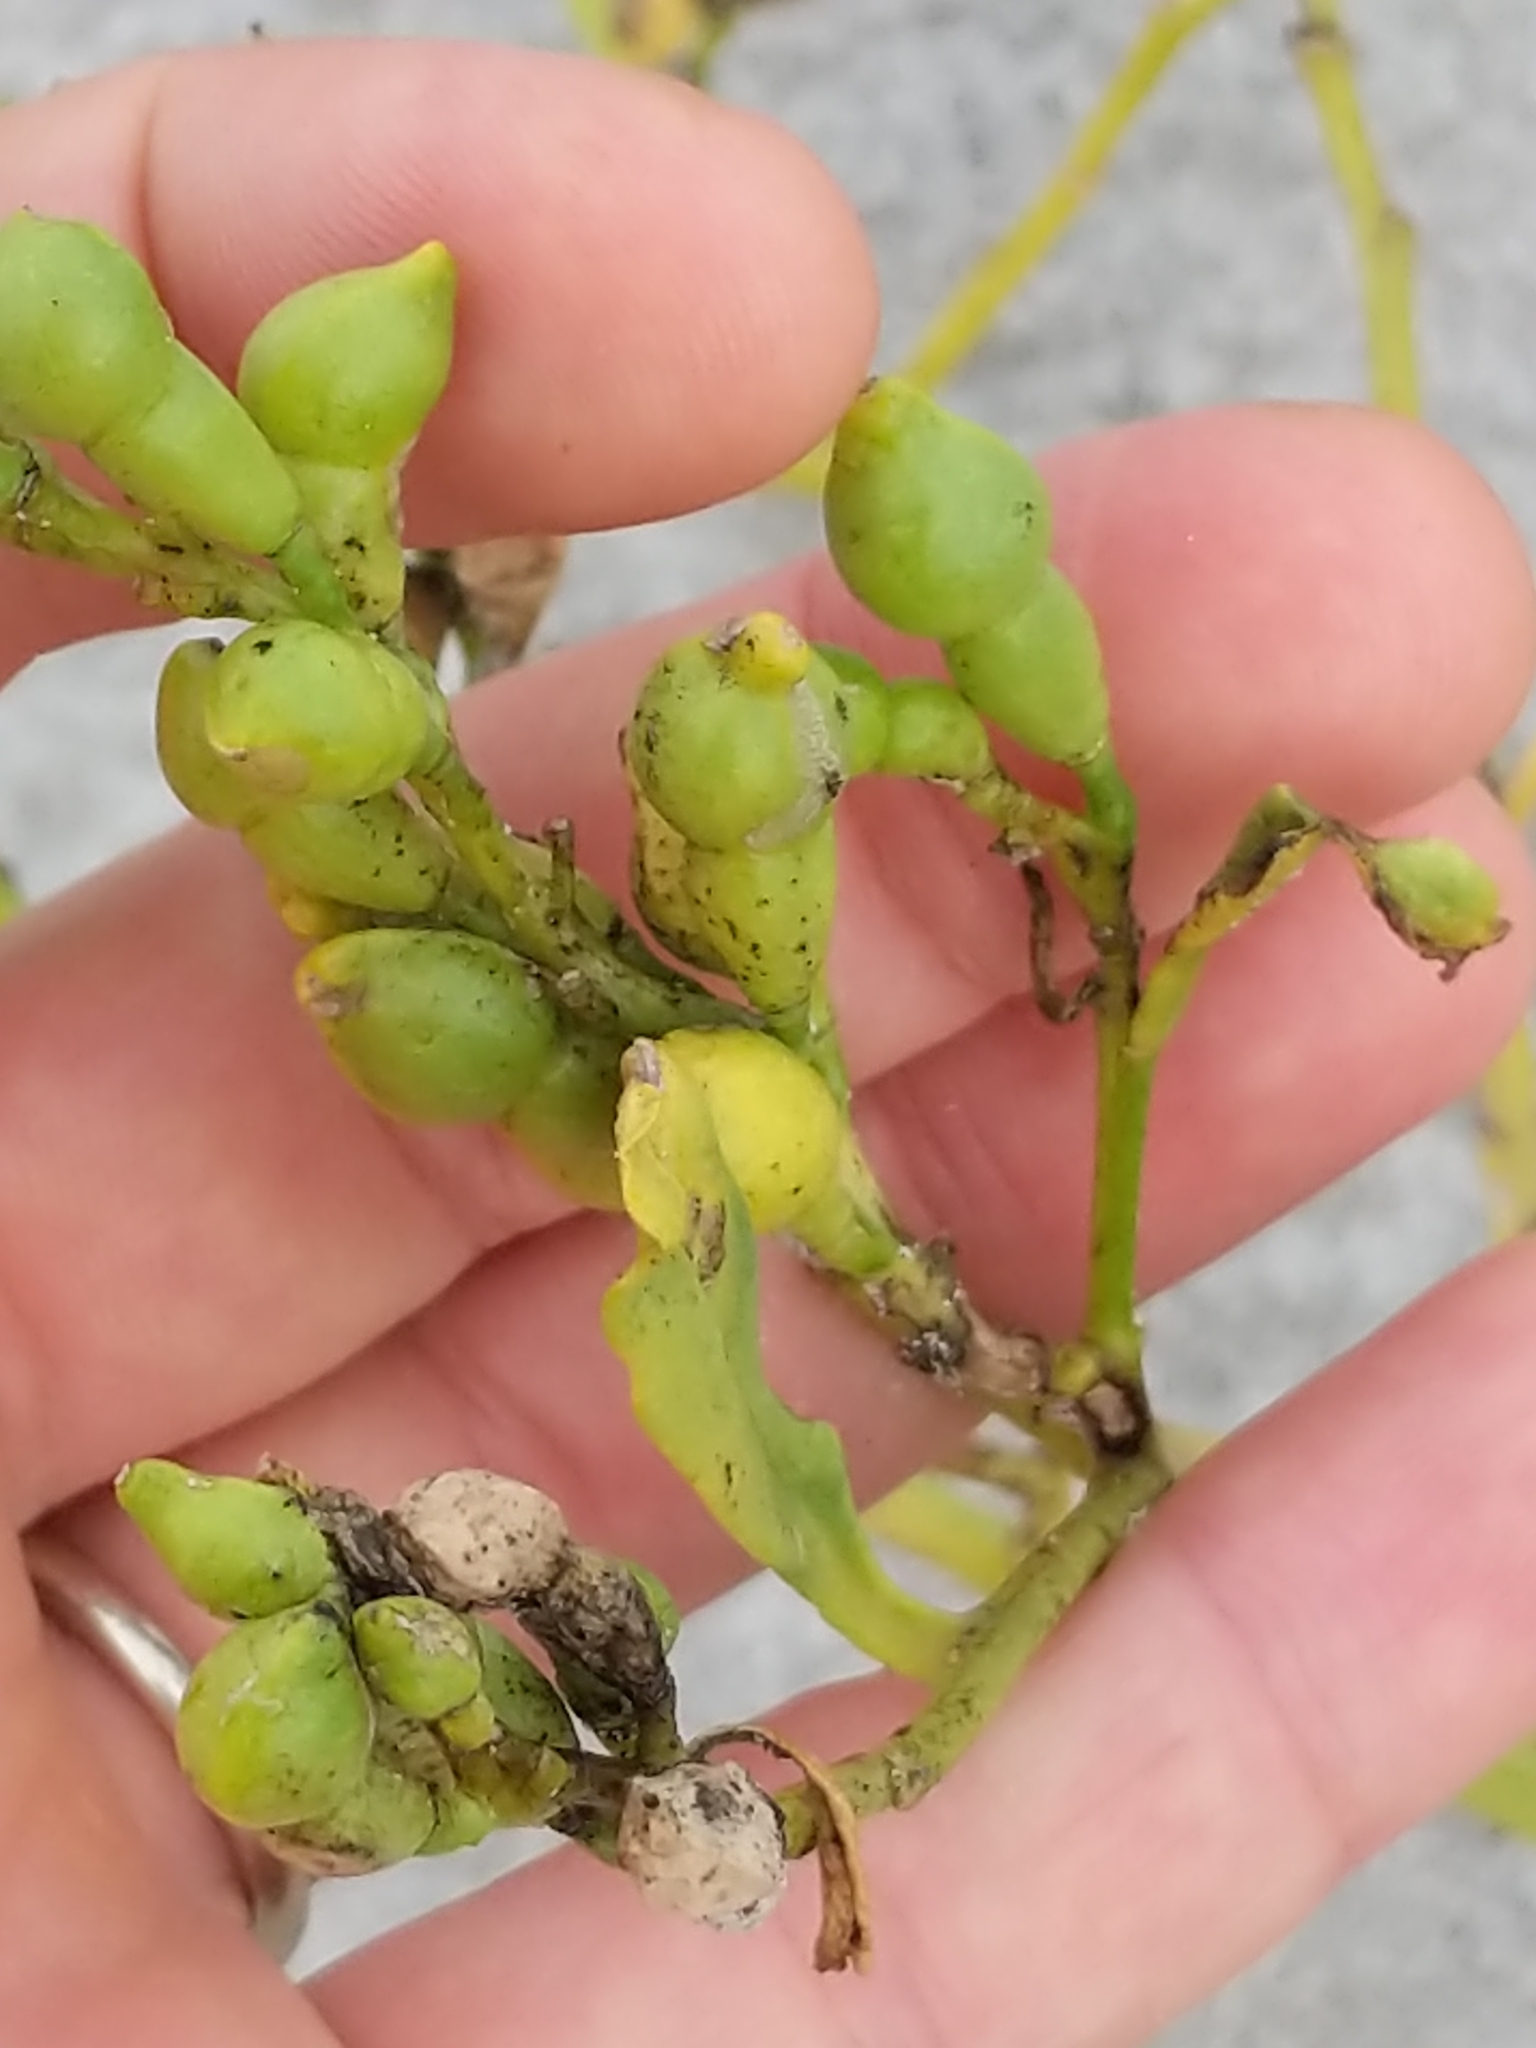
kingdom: Plantae
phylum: Tracheophyta
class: Magnoliopsida
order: Brassicales
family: Brassicaceae
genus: Cakile
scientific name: Cakile edentula
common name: American sea rocket
